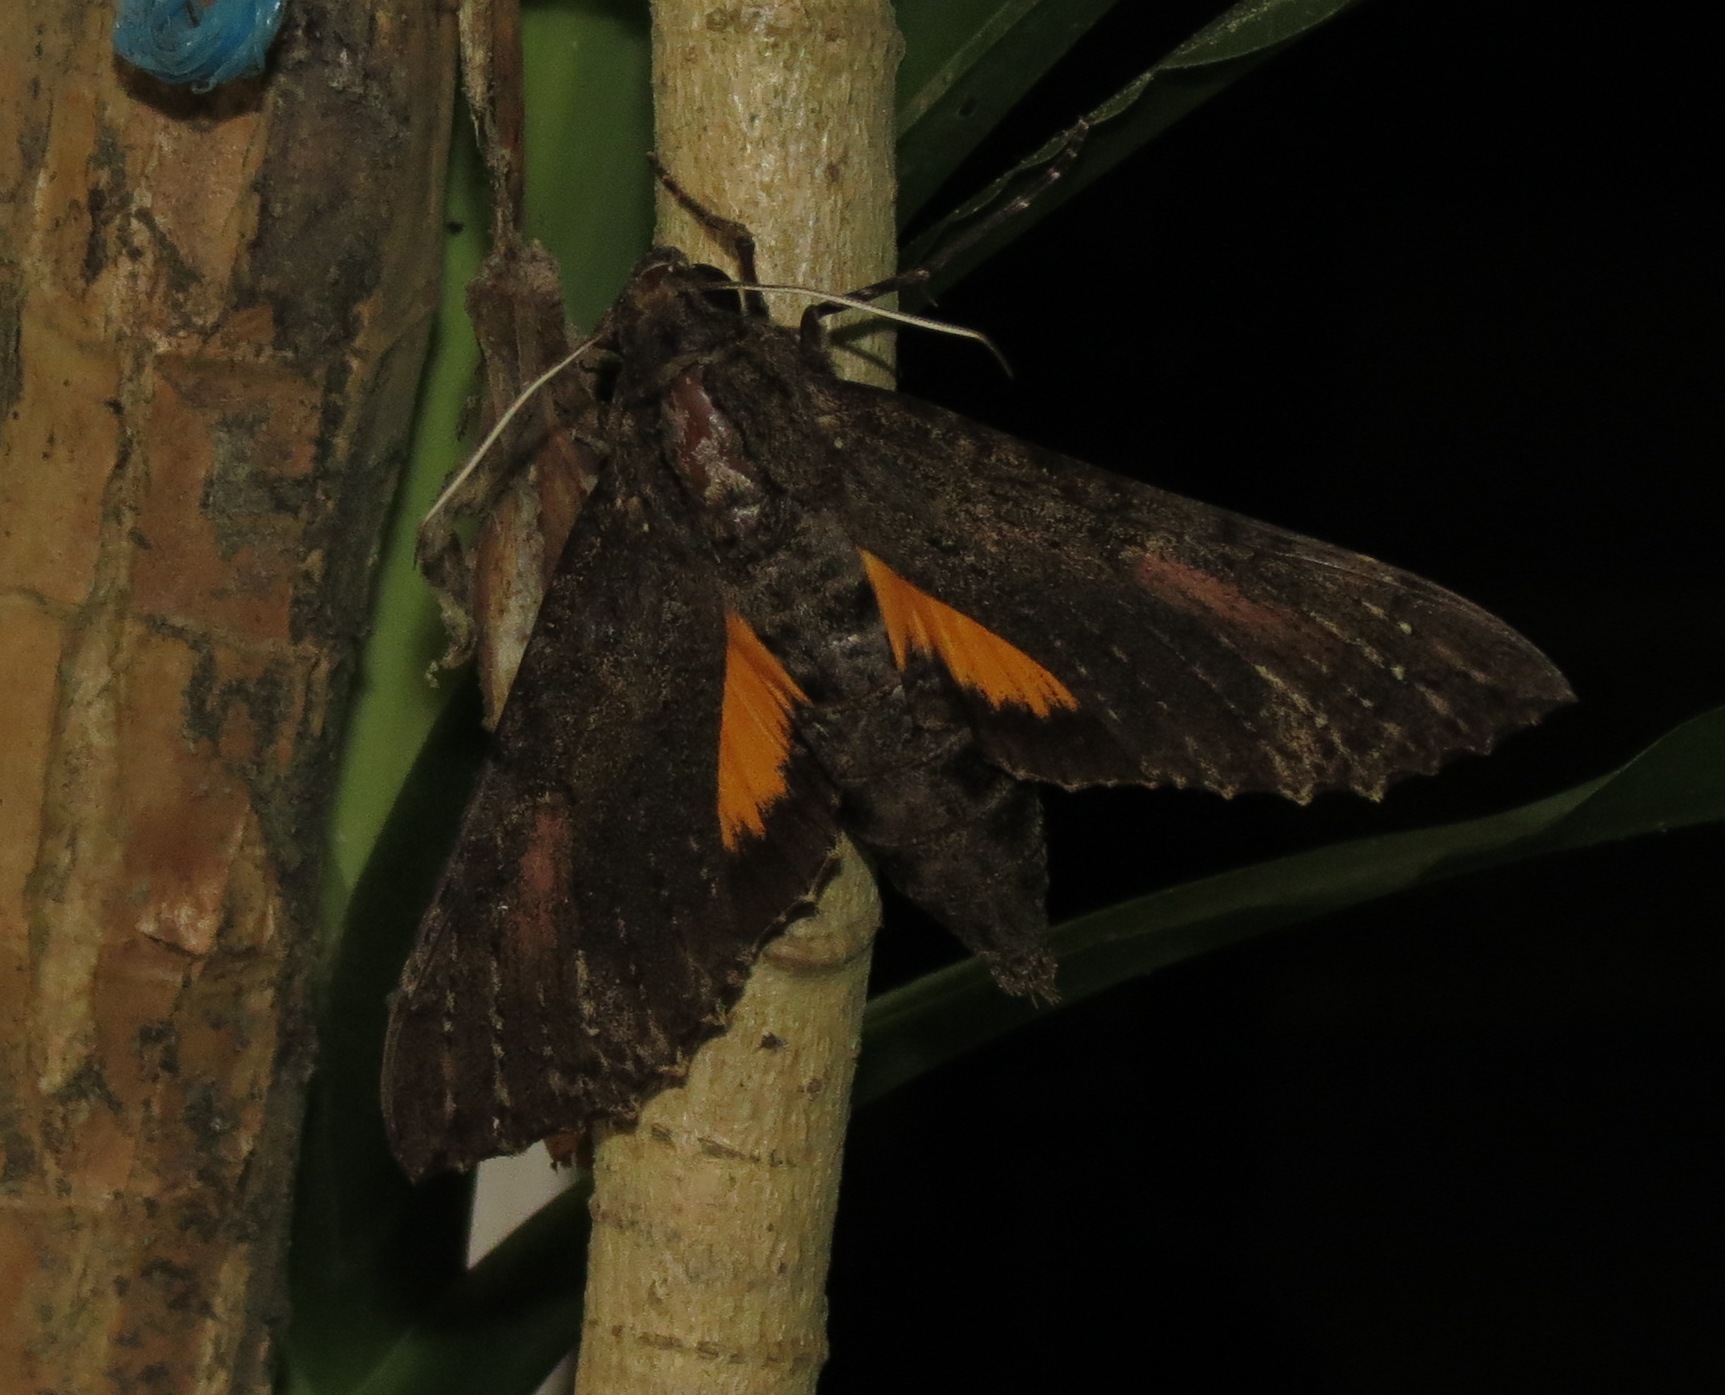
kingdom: Animalia
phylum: Arthropoda
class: Insecta
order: Lepidoptera
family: Sphingidae
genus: Isognathus
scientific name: Isognathus scyron
